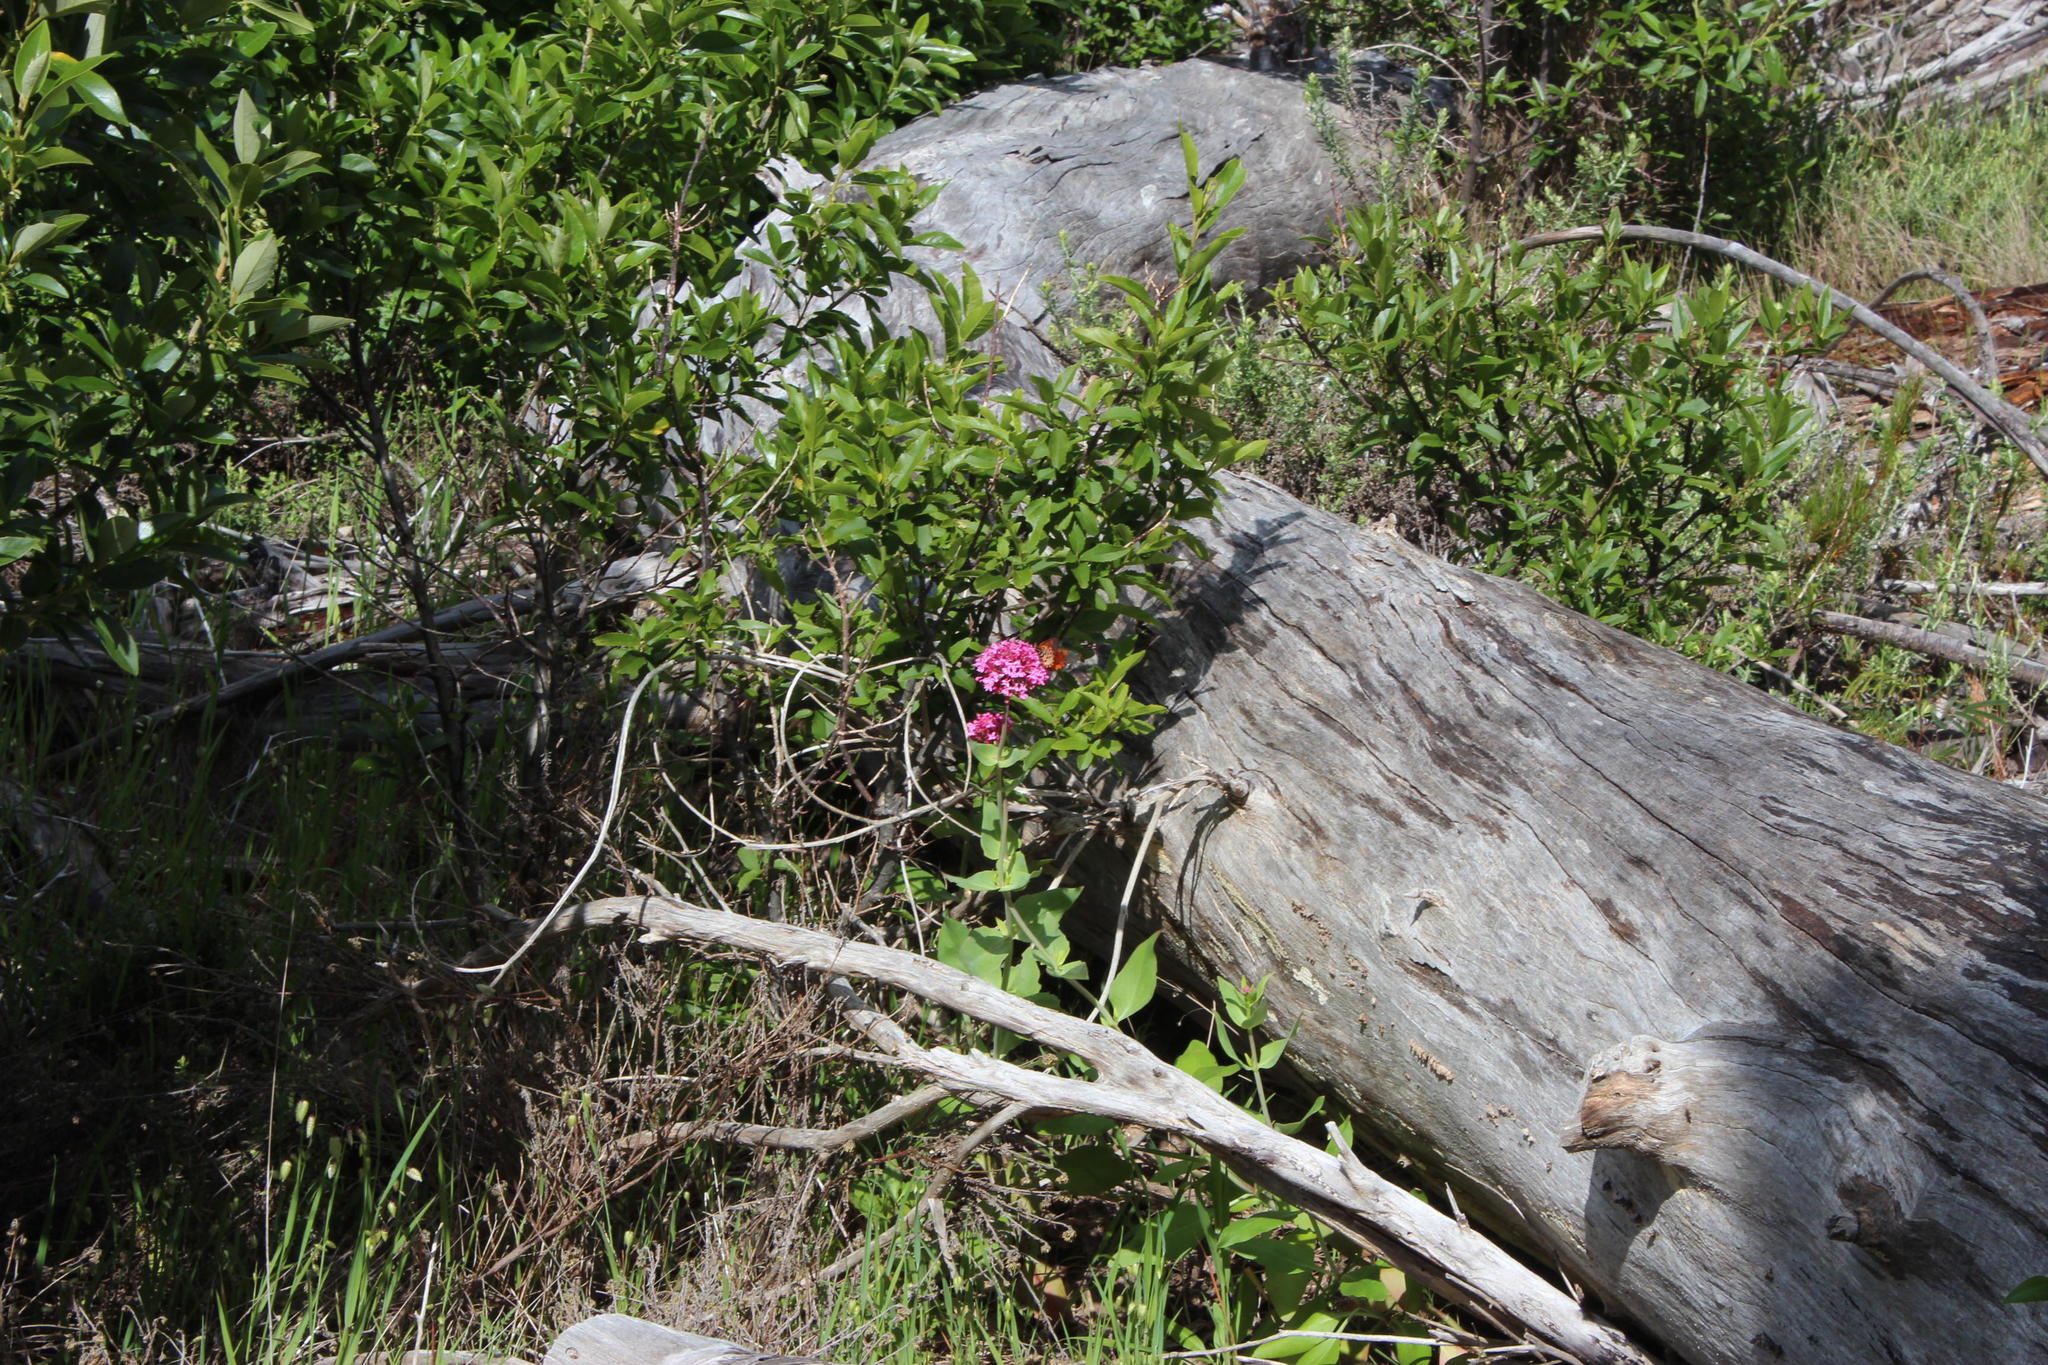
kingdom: Plantae
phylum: Tracheophyta
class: Magnoliopsida
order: Dipsacales
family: Caprifoliaceae
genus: Centranthus
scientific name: Centranthus ruber
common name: Red valerian
